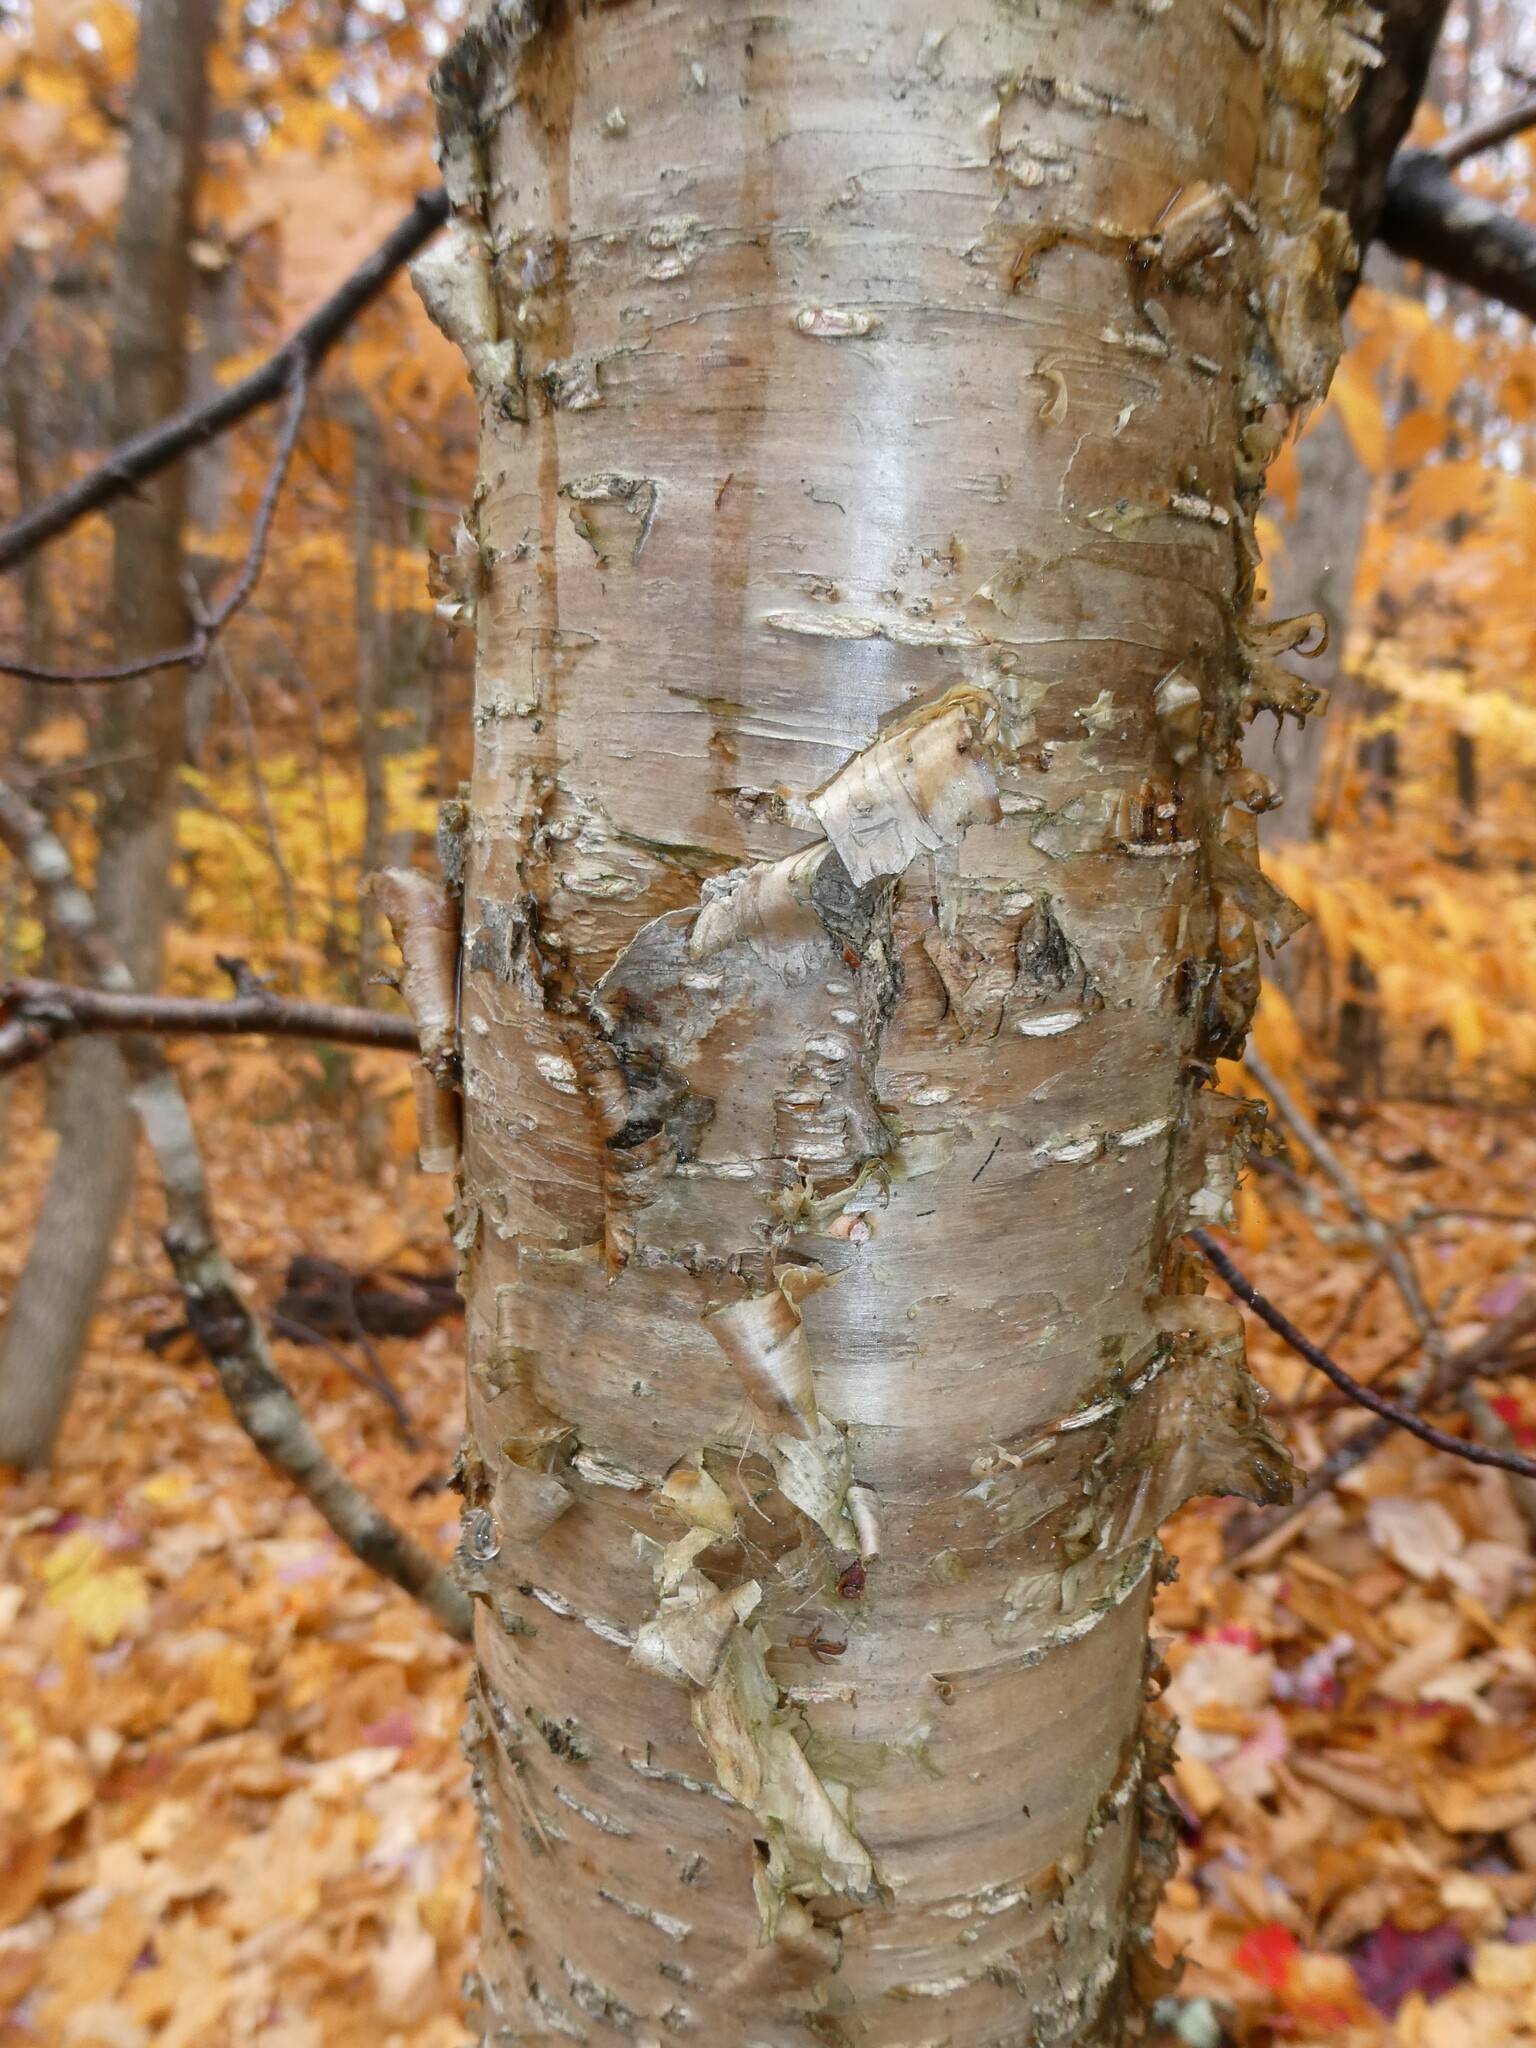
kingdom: Plantae
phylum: Tracheophyta
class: Magnoliopsida
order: Fagales
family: Betulaceae
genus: Betula
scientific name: Betula alleghaniensis
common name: Yellow birch
